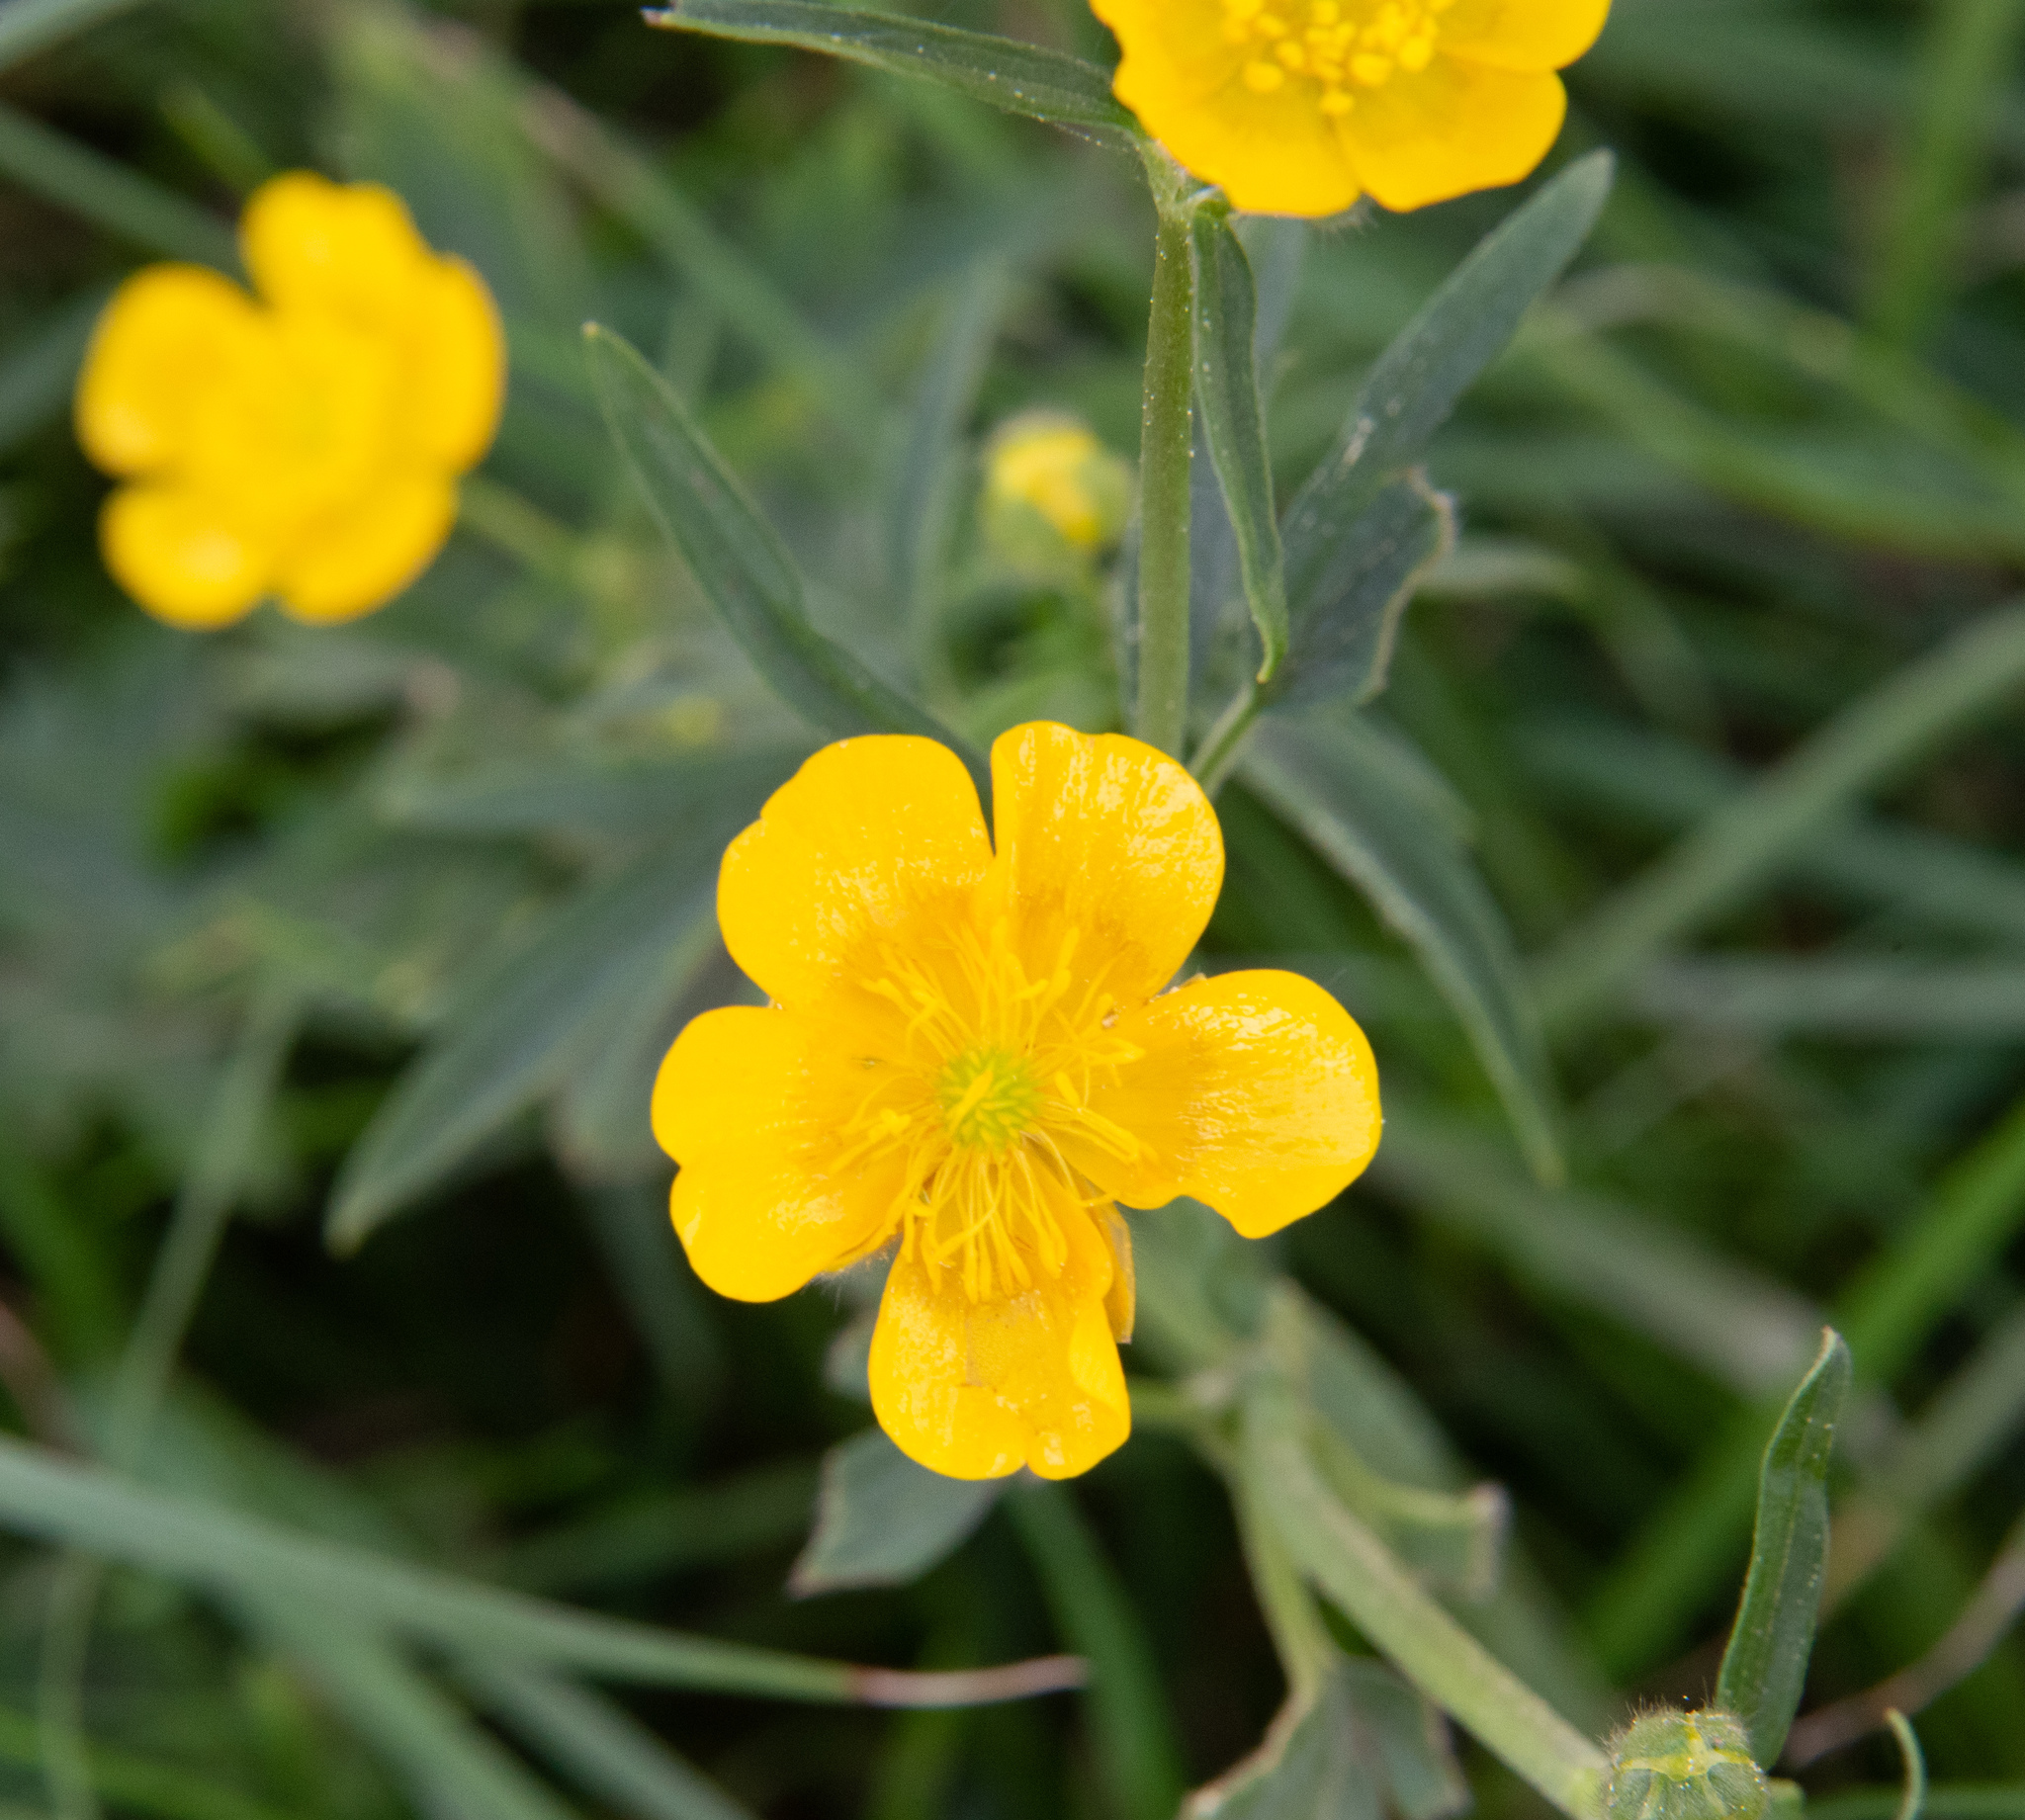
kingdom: Plantae
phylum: Tracheophyta
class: Magnoliopsida
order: Ranunculales
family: Ranunculaceae
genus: Ranunculus
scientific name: Ranunculus acris
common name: Meadow buttercup
